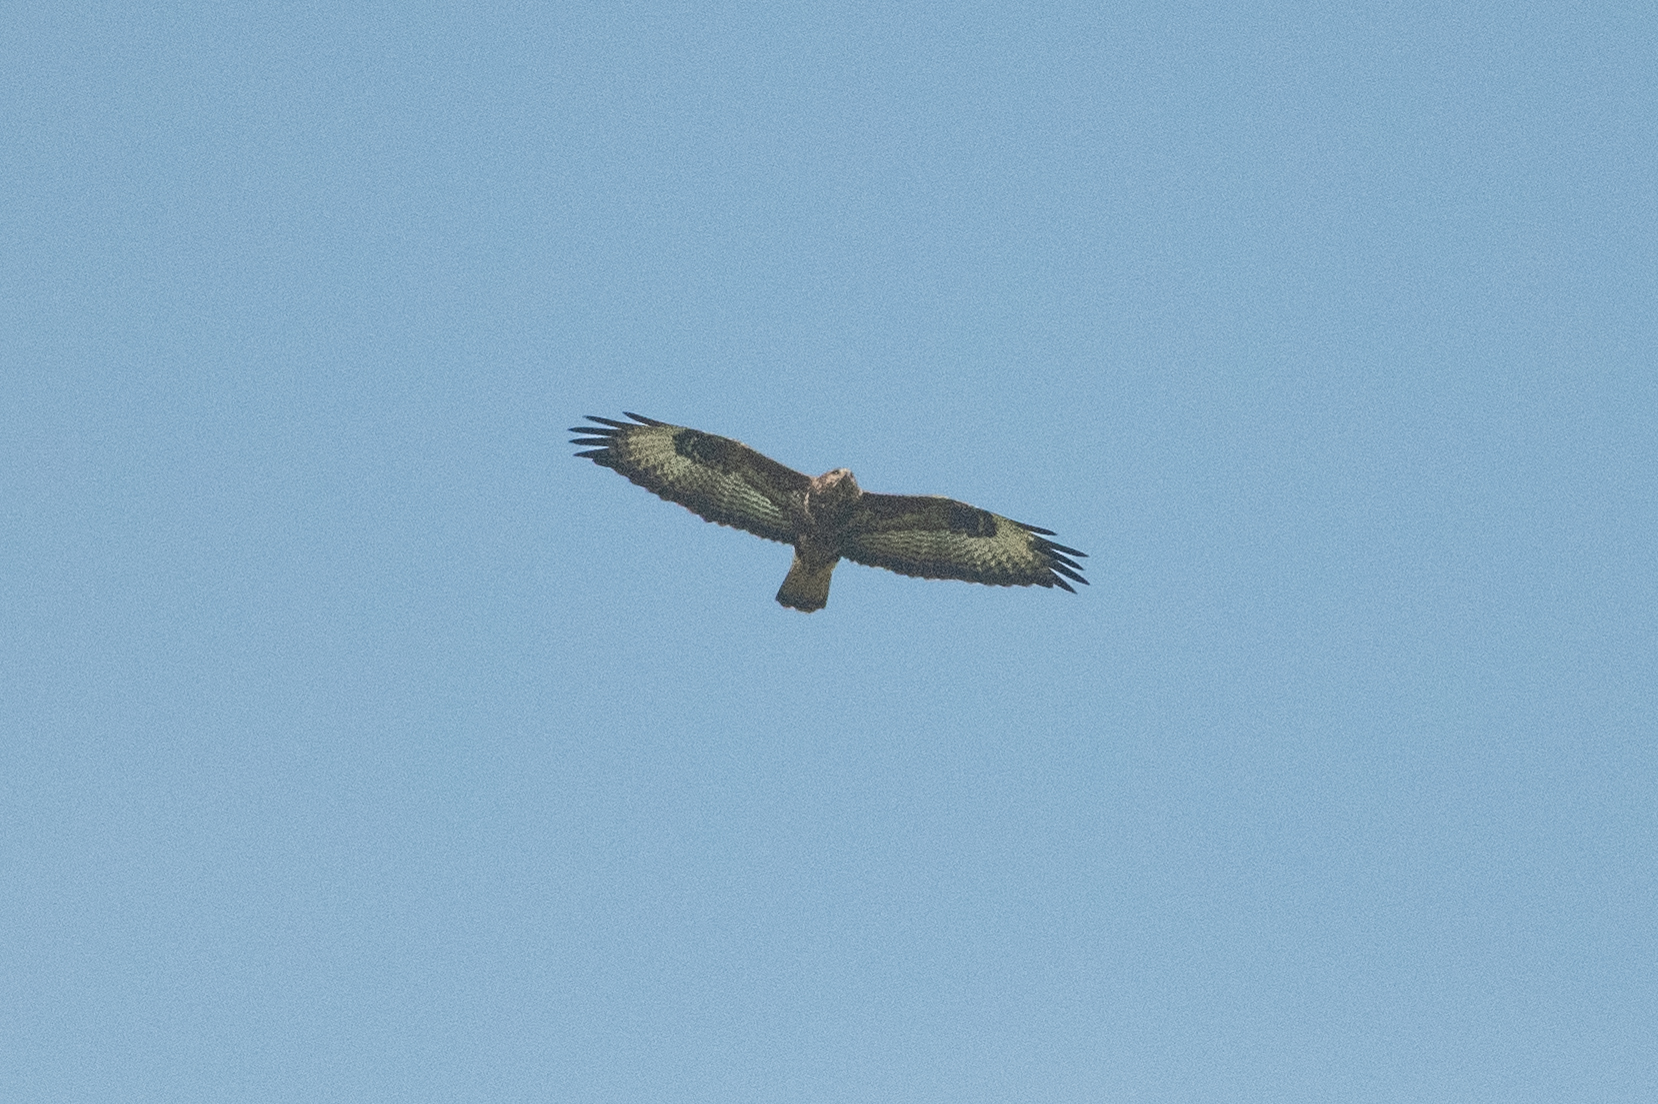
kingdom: Animalia
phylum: Chordata
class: Aves
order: Accipitriformes
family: Accipitridae
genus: Buteo
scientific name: Buteo buteo
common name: Common buzzard
